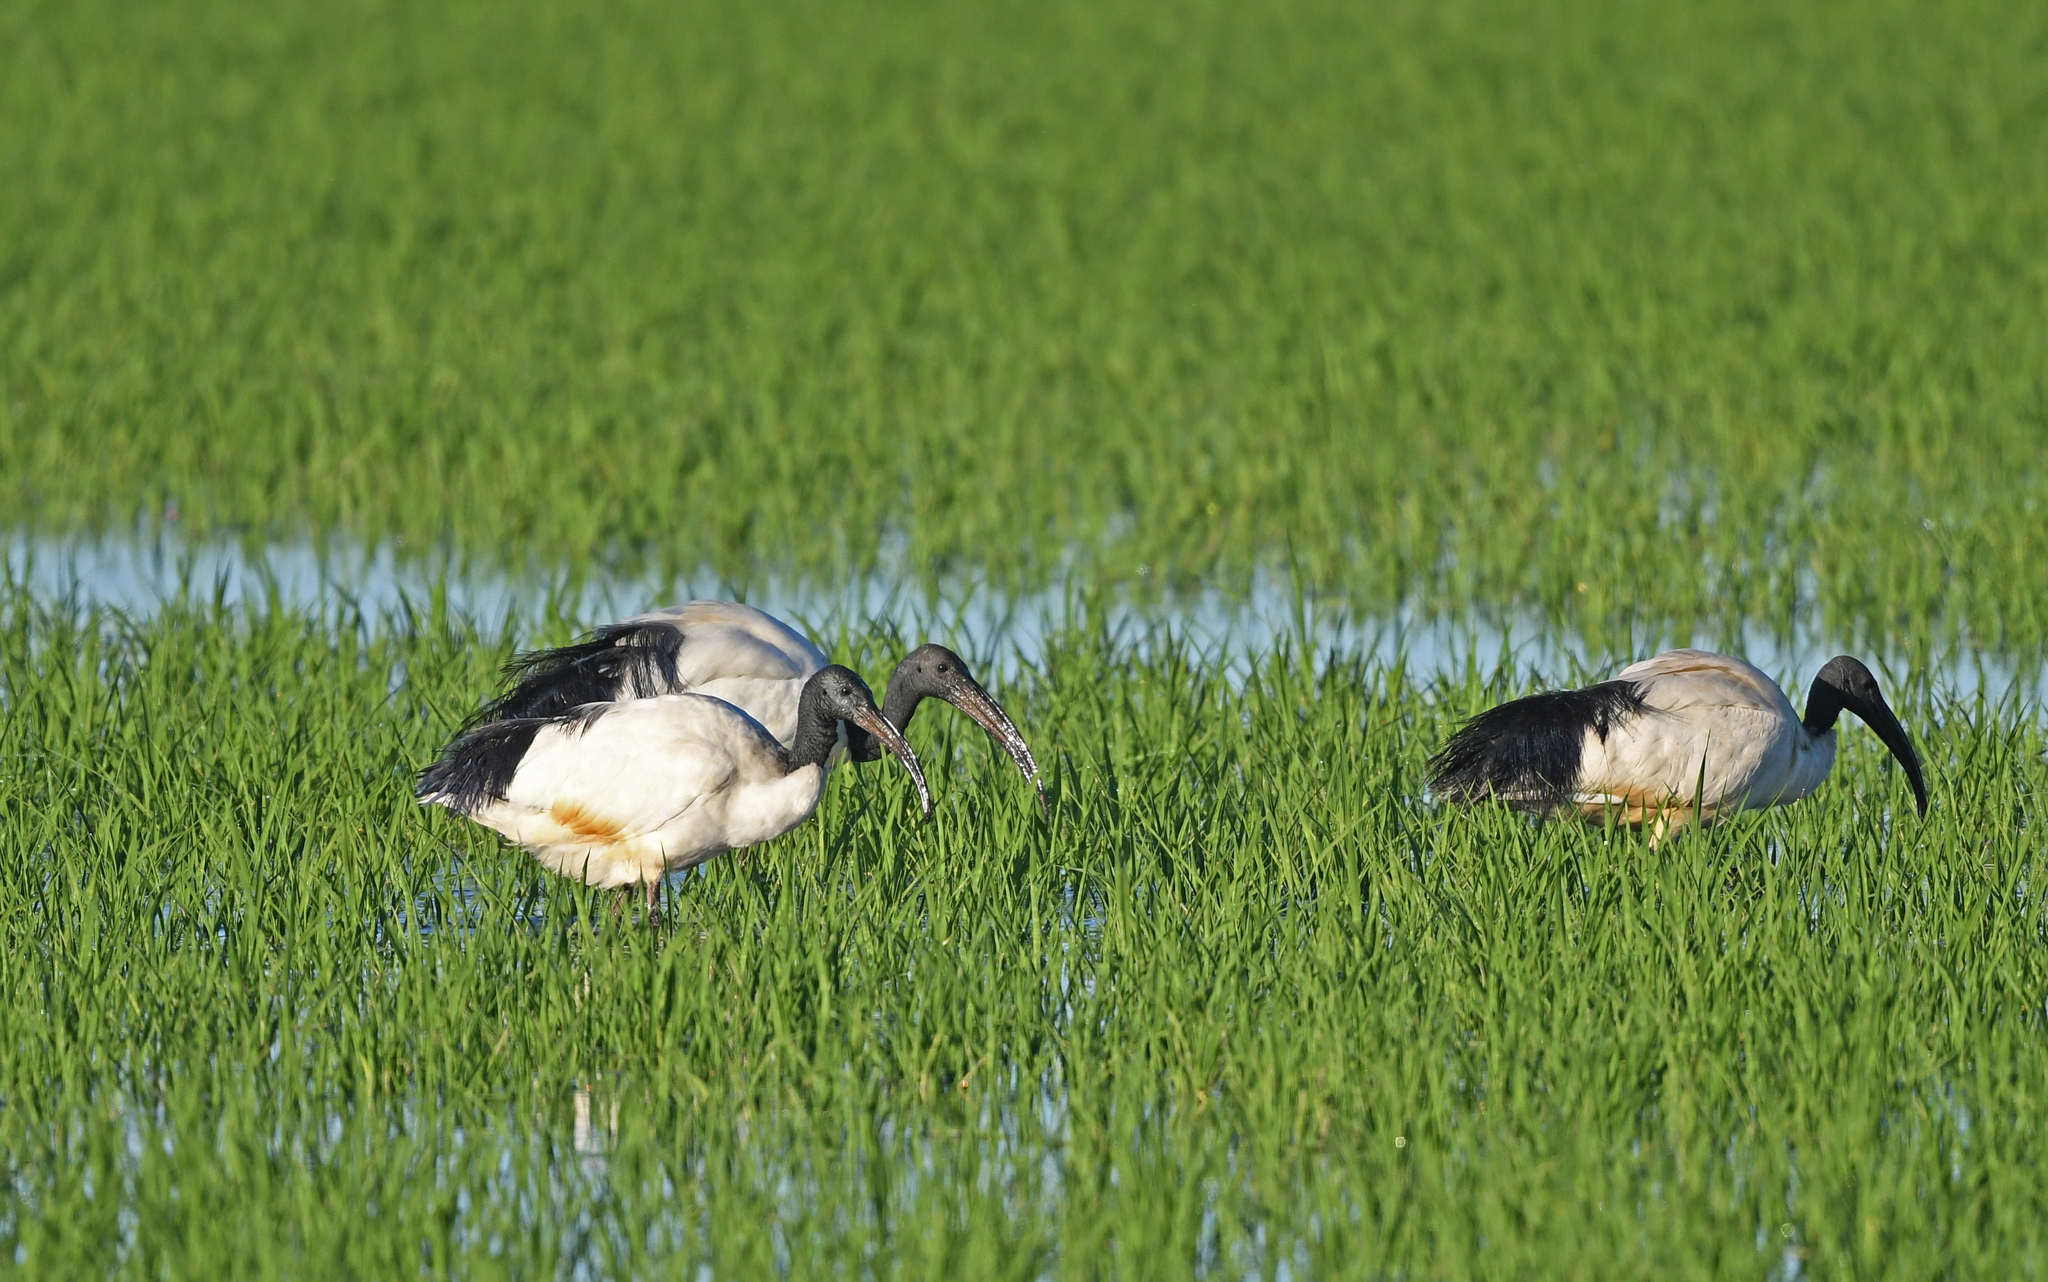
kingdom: Animalia
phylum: Chordata
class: Aves
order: Pelecaniformes
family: Threskiornithidae
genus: Threskiornis
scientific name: Threskiornis aethiopicus
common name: Sacred ibis
